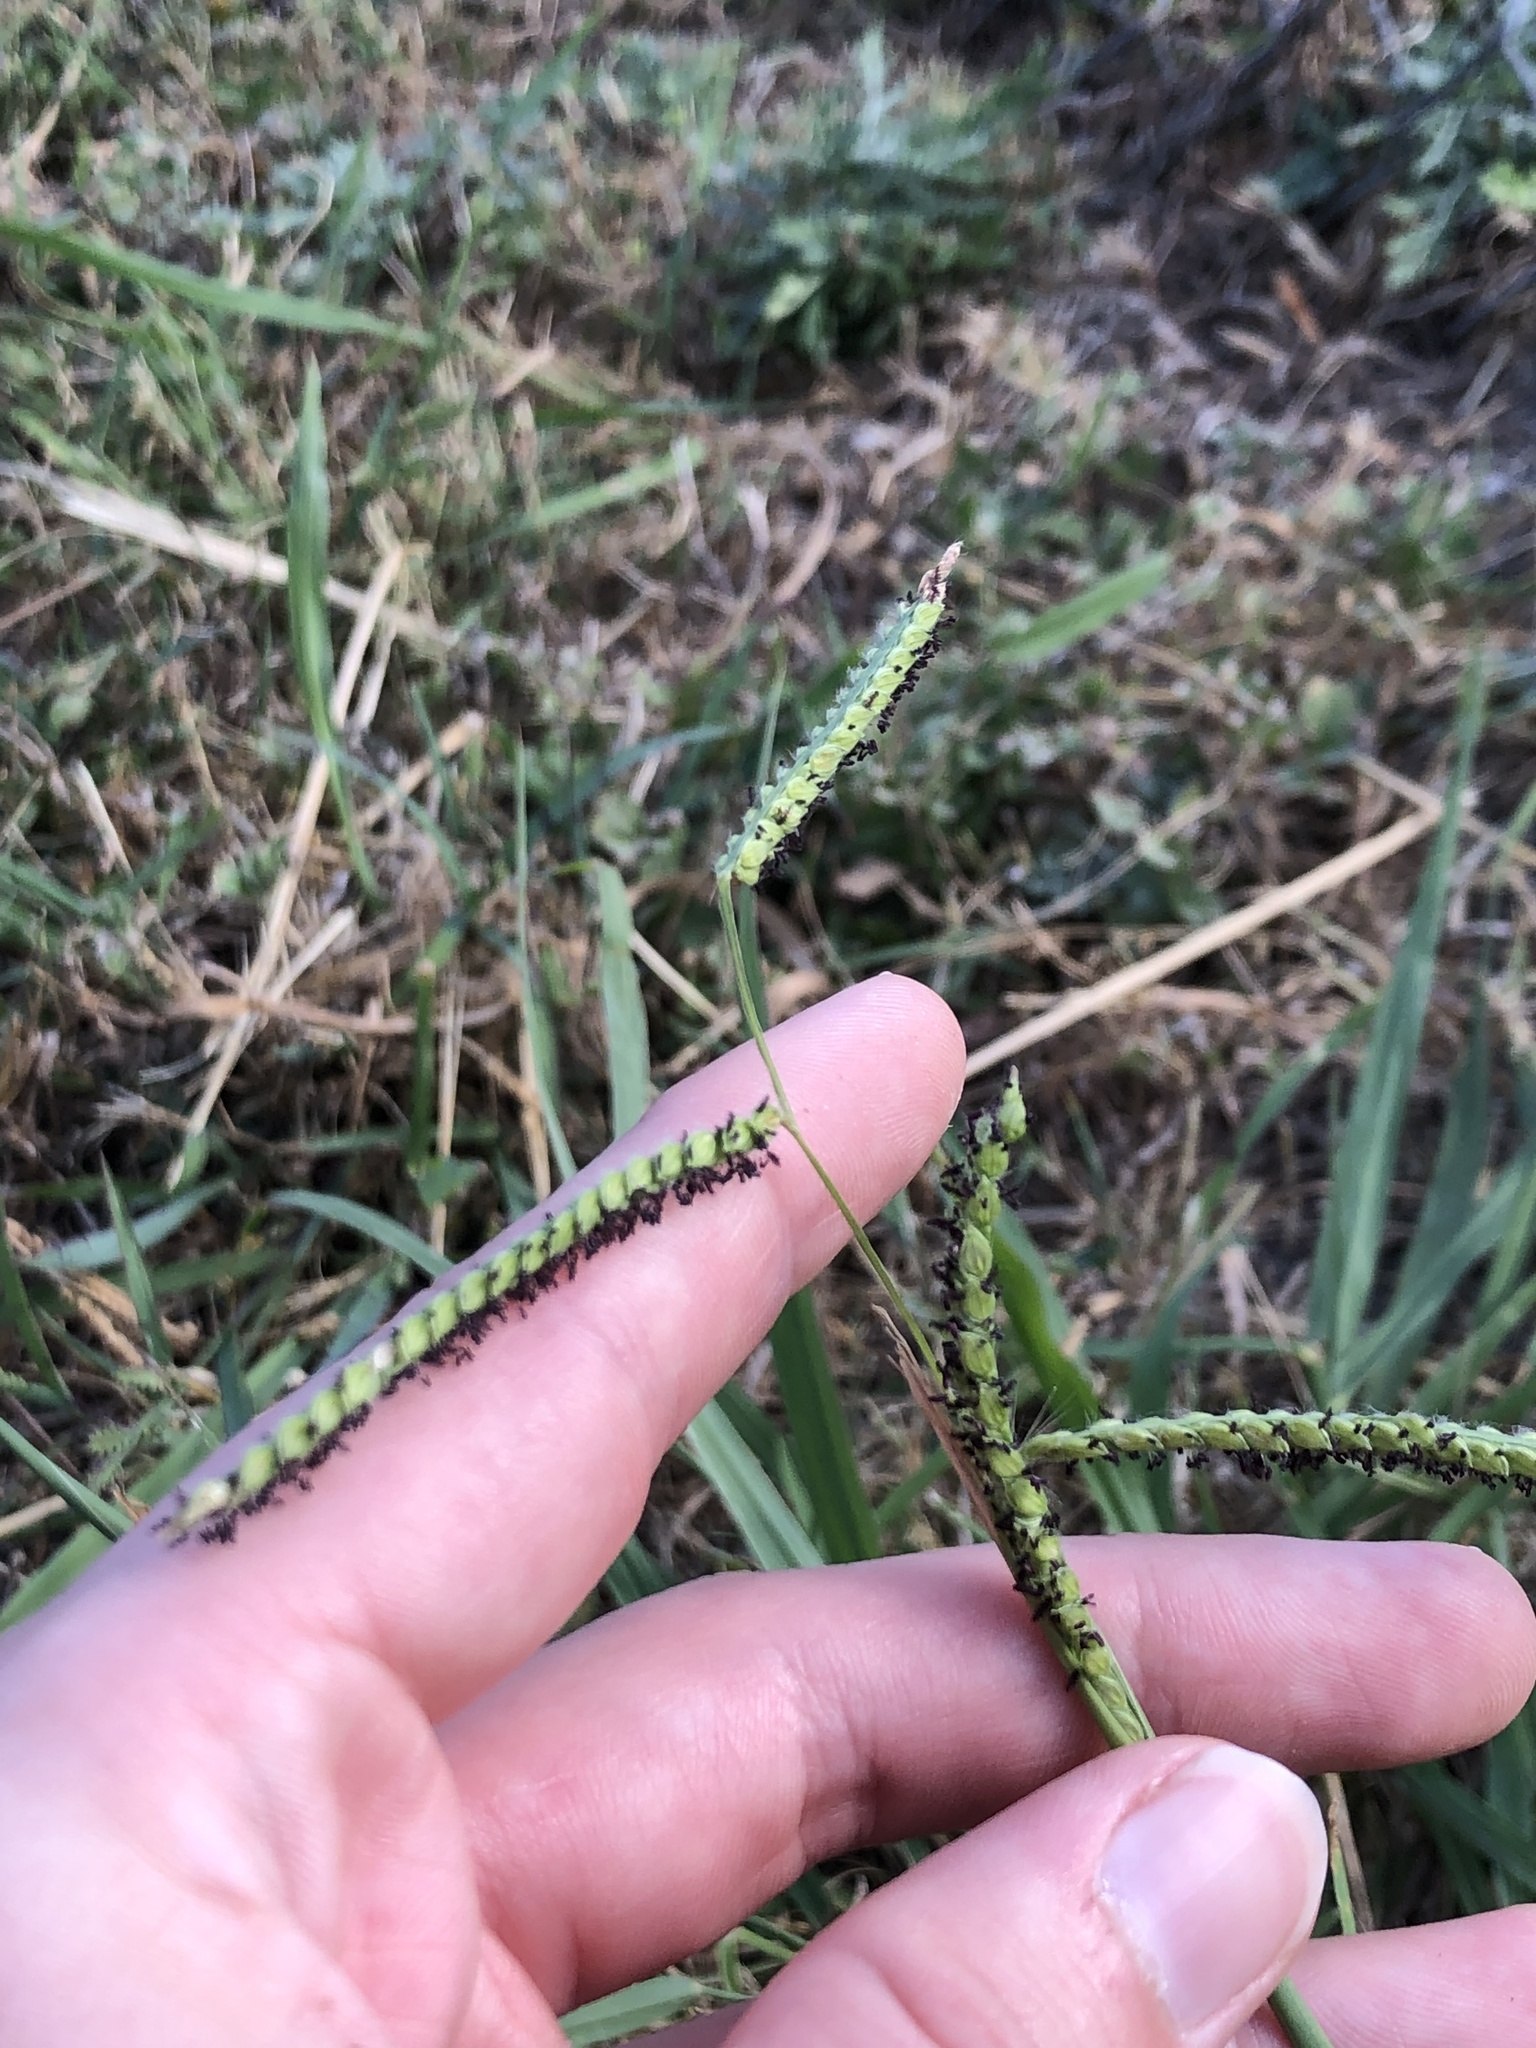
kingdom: Plantae
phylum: Tracheophyta
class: Liliopsida
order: Poales
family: Poaceae
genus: Paspalum
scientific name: Paspalum dilatatum
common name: Dallisgrass
